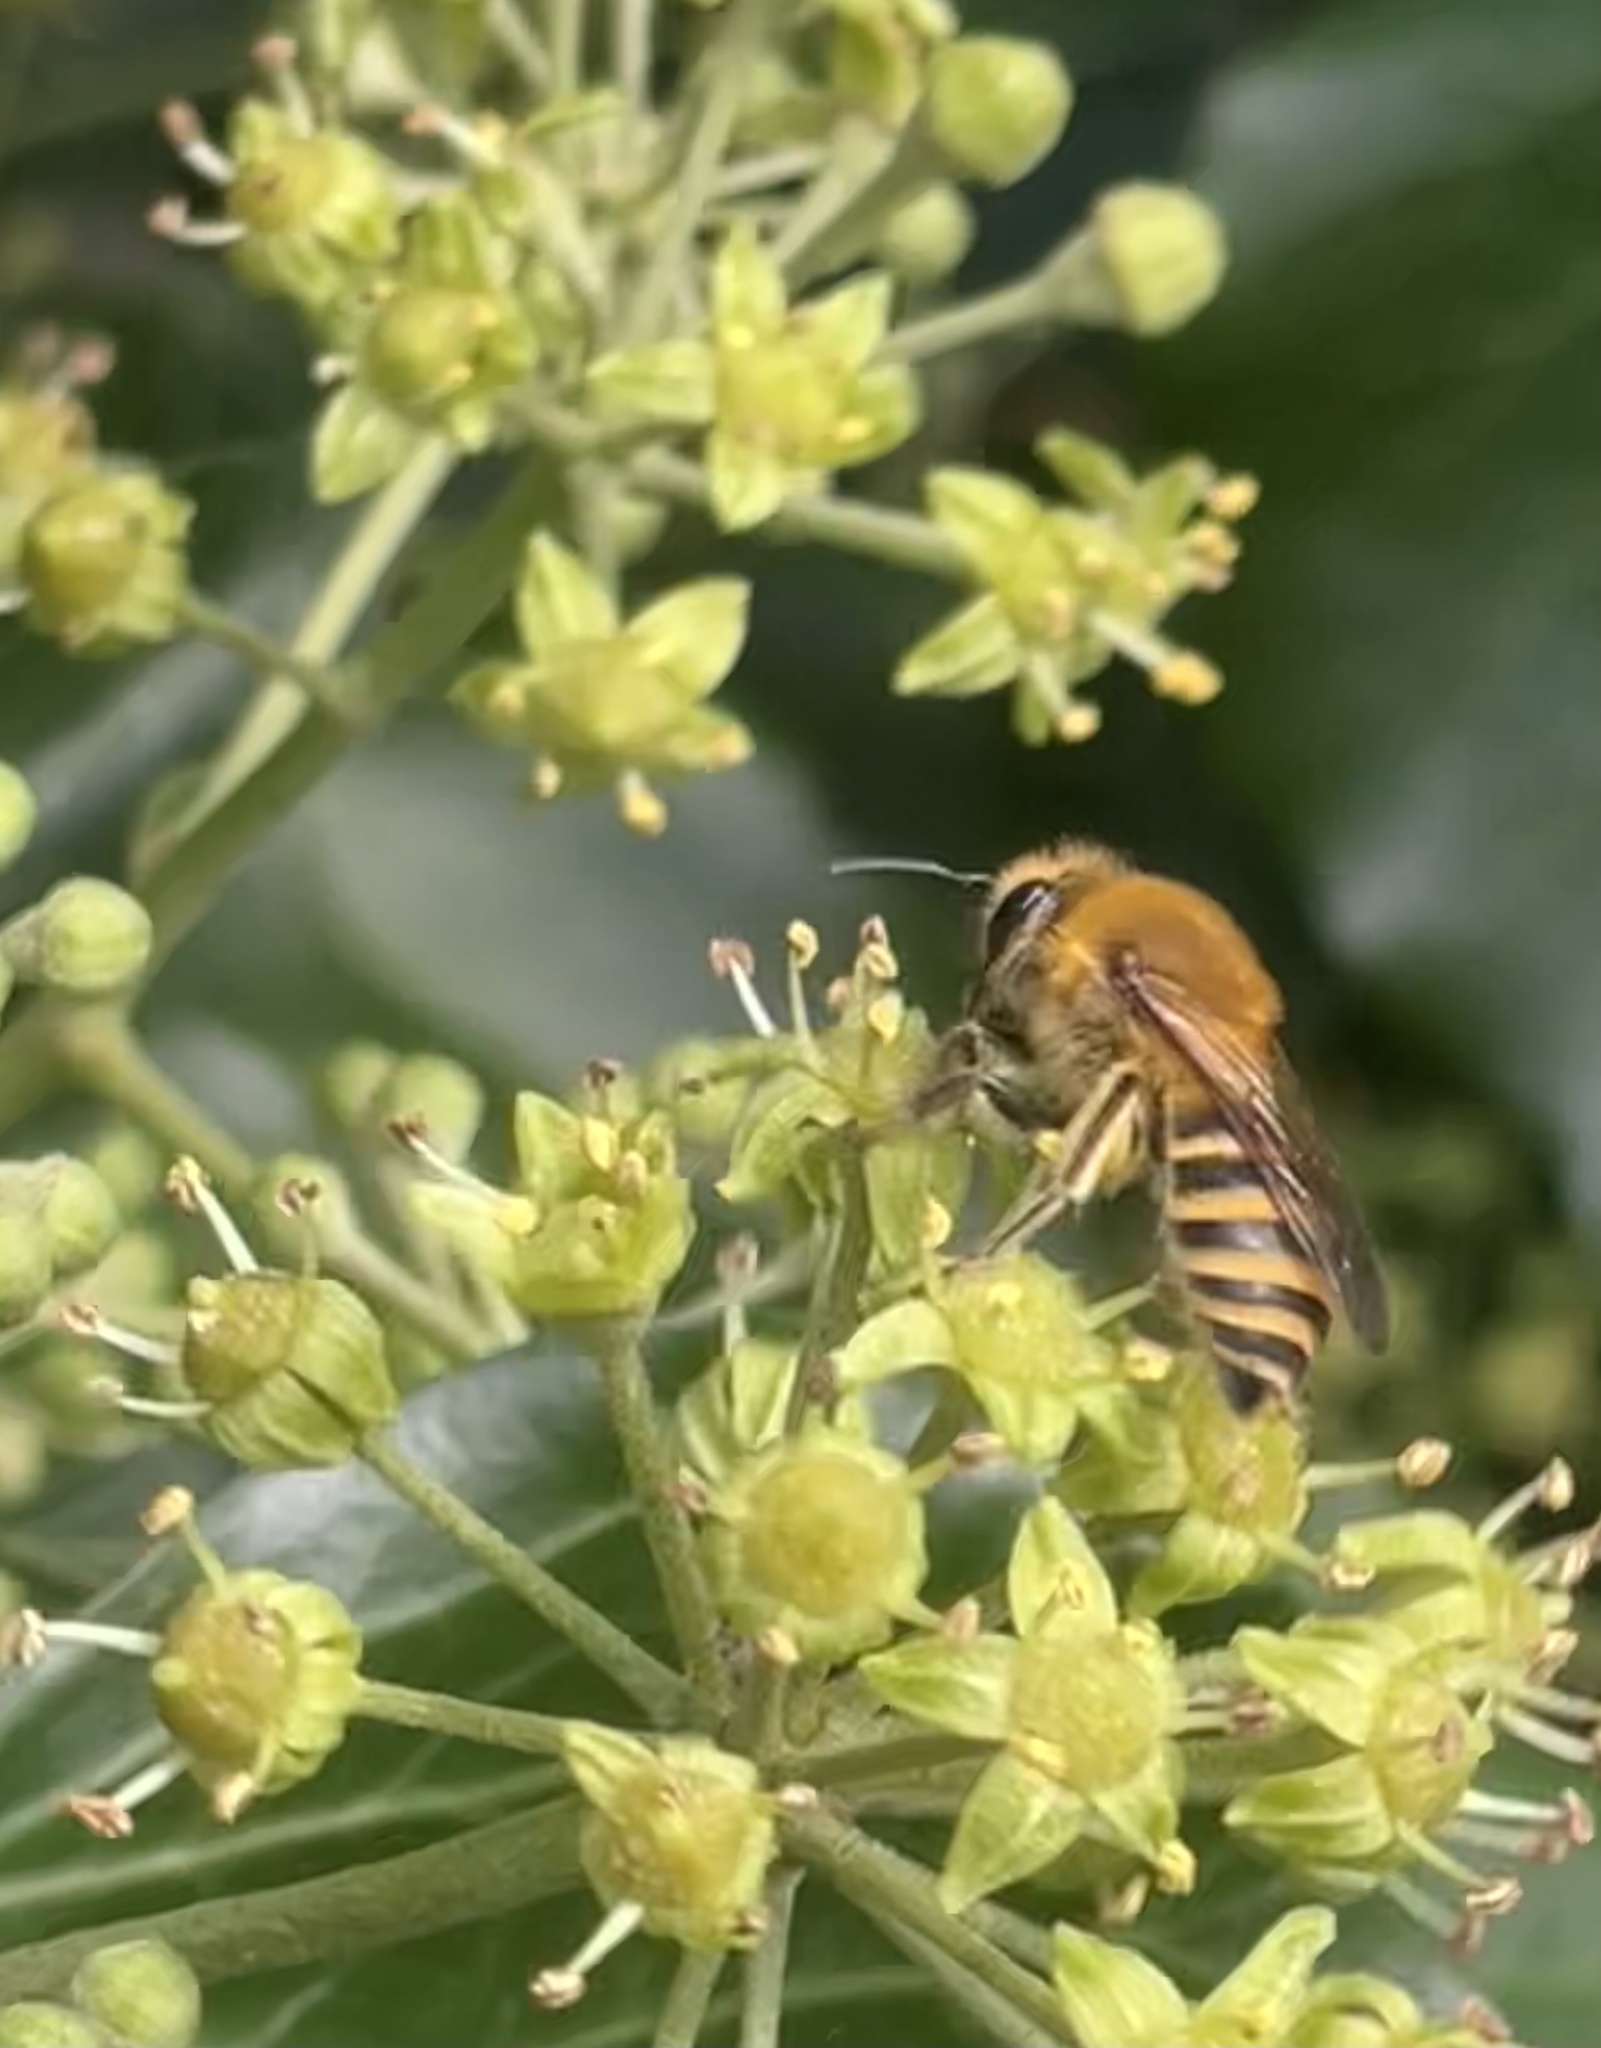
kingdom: Animalia
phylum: Arthropoda
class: Insecta
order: Hymenoptera
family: Colletidae
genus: Colletes
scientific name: Colletes hederae
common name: Ivy bee
